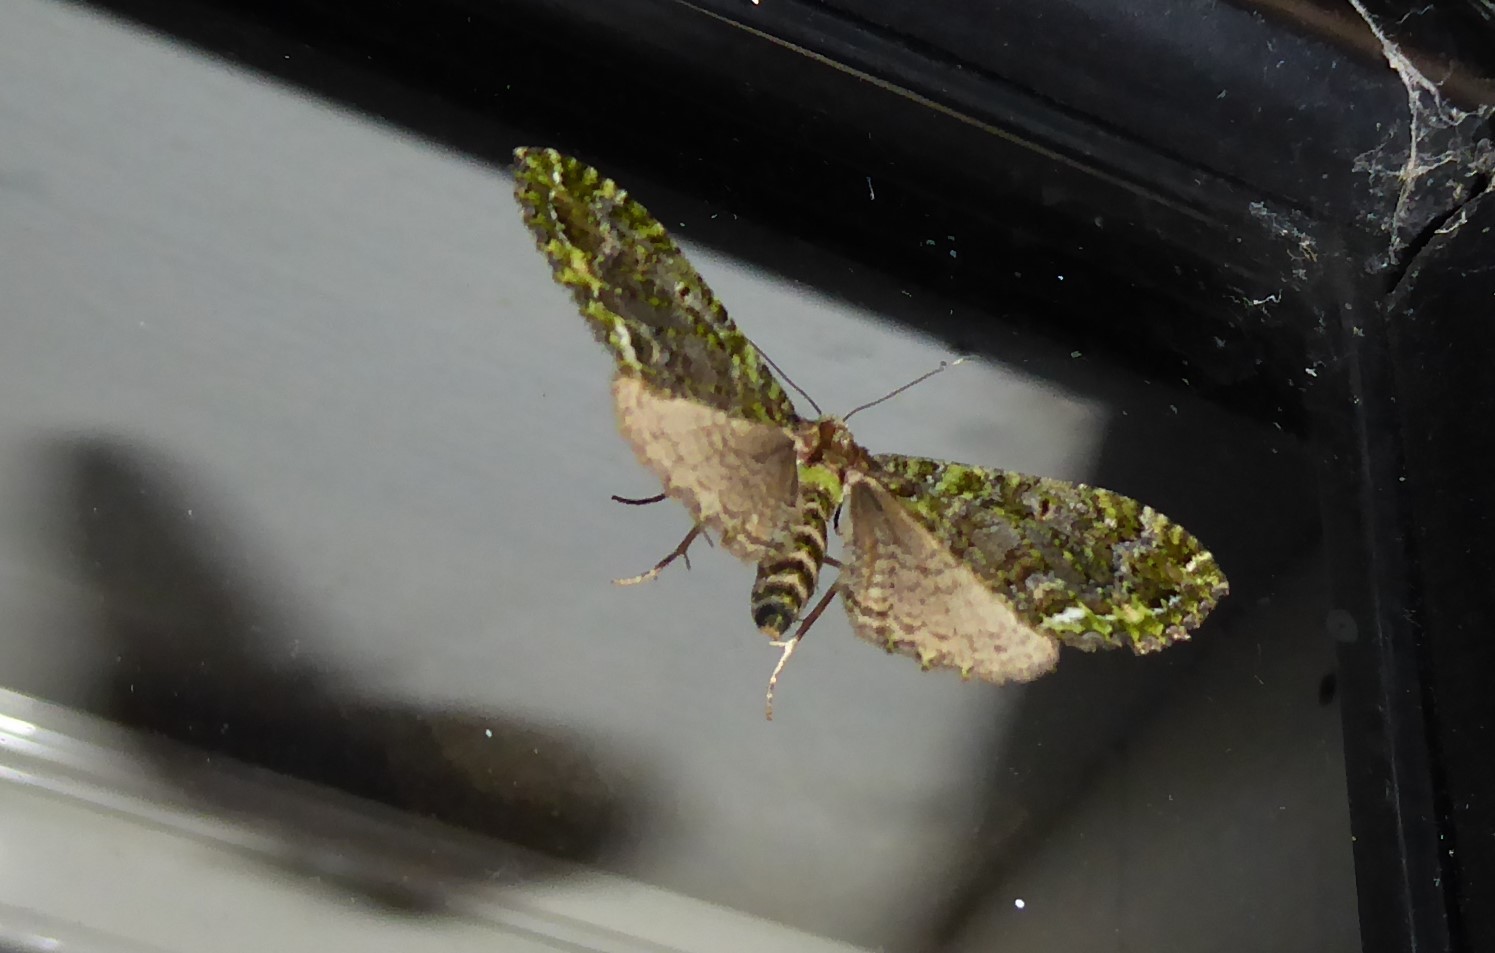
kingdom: Animalia
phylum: Arthropoda
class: Insecta
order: Lepidoptera
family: Geometridae
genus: Austrocidaria
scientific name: Austrocidaria similata
